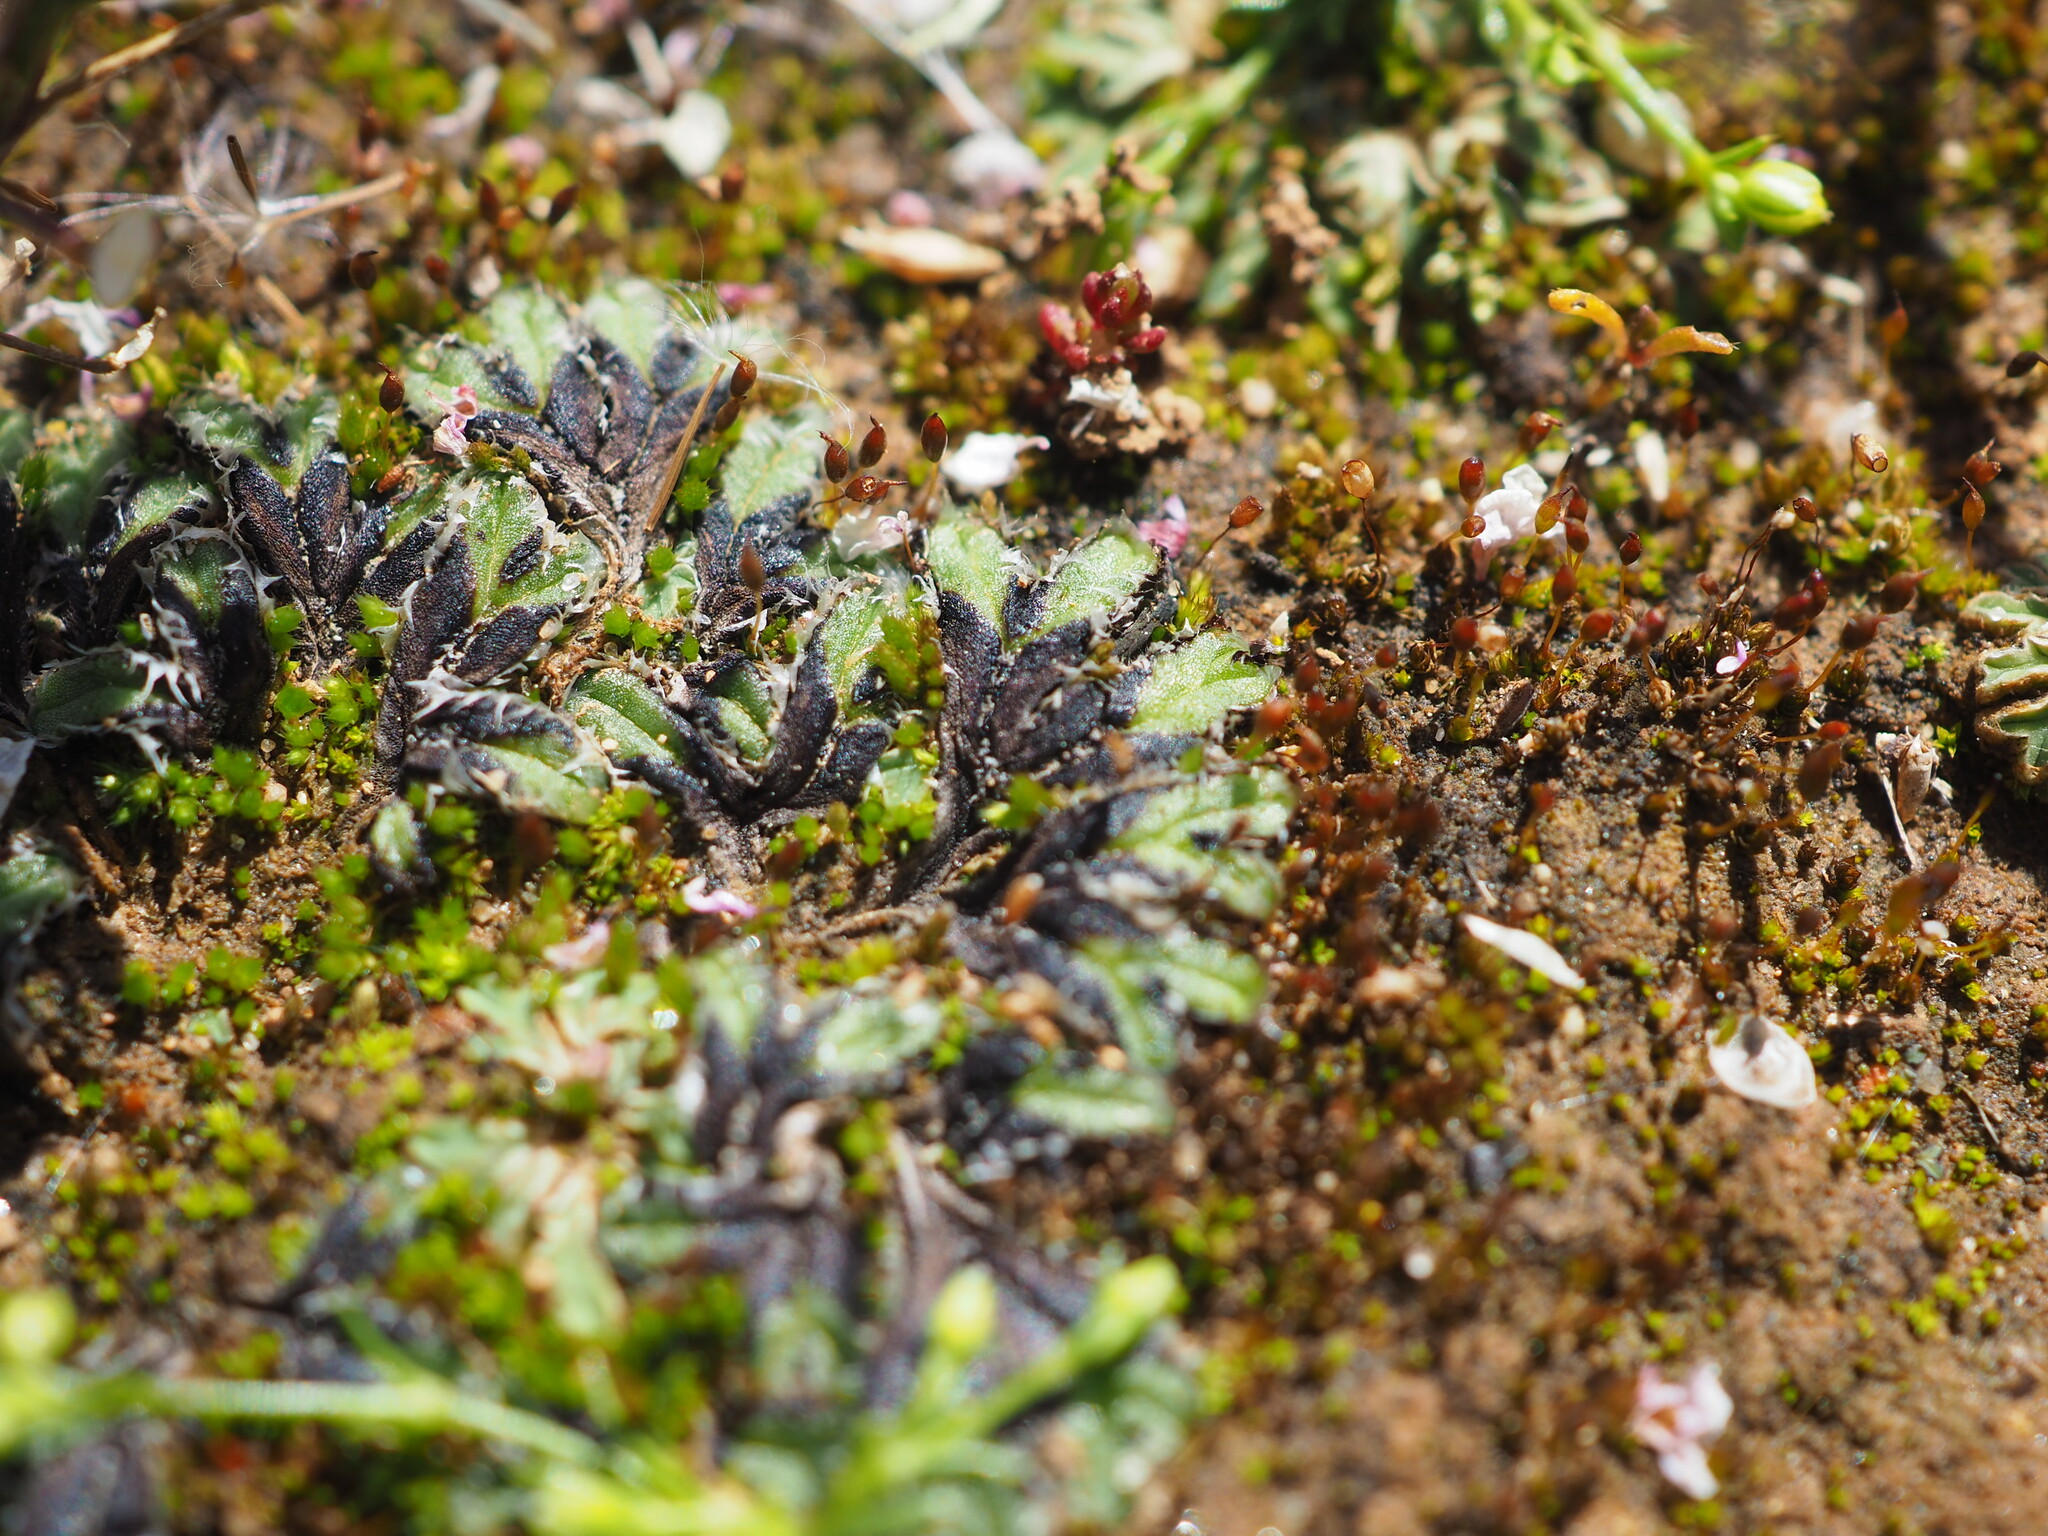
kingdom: Plantae
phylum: Marchantiophyta
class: Marchantiopsida
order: Marchantiales
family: Ricciaceae
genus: Oxymitra
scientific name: Oxymitra incrassata
